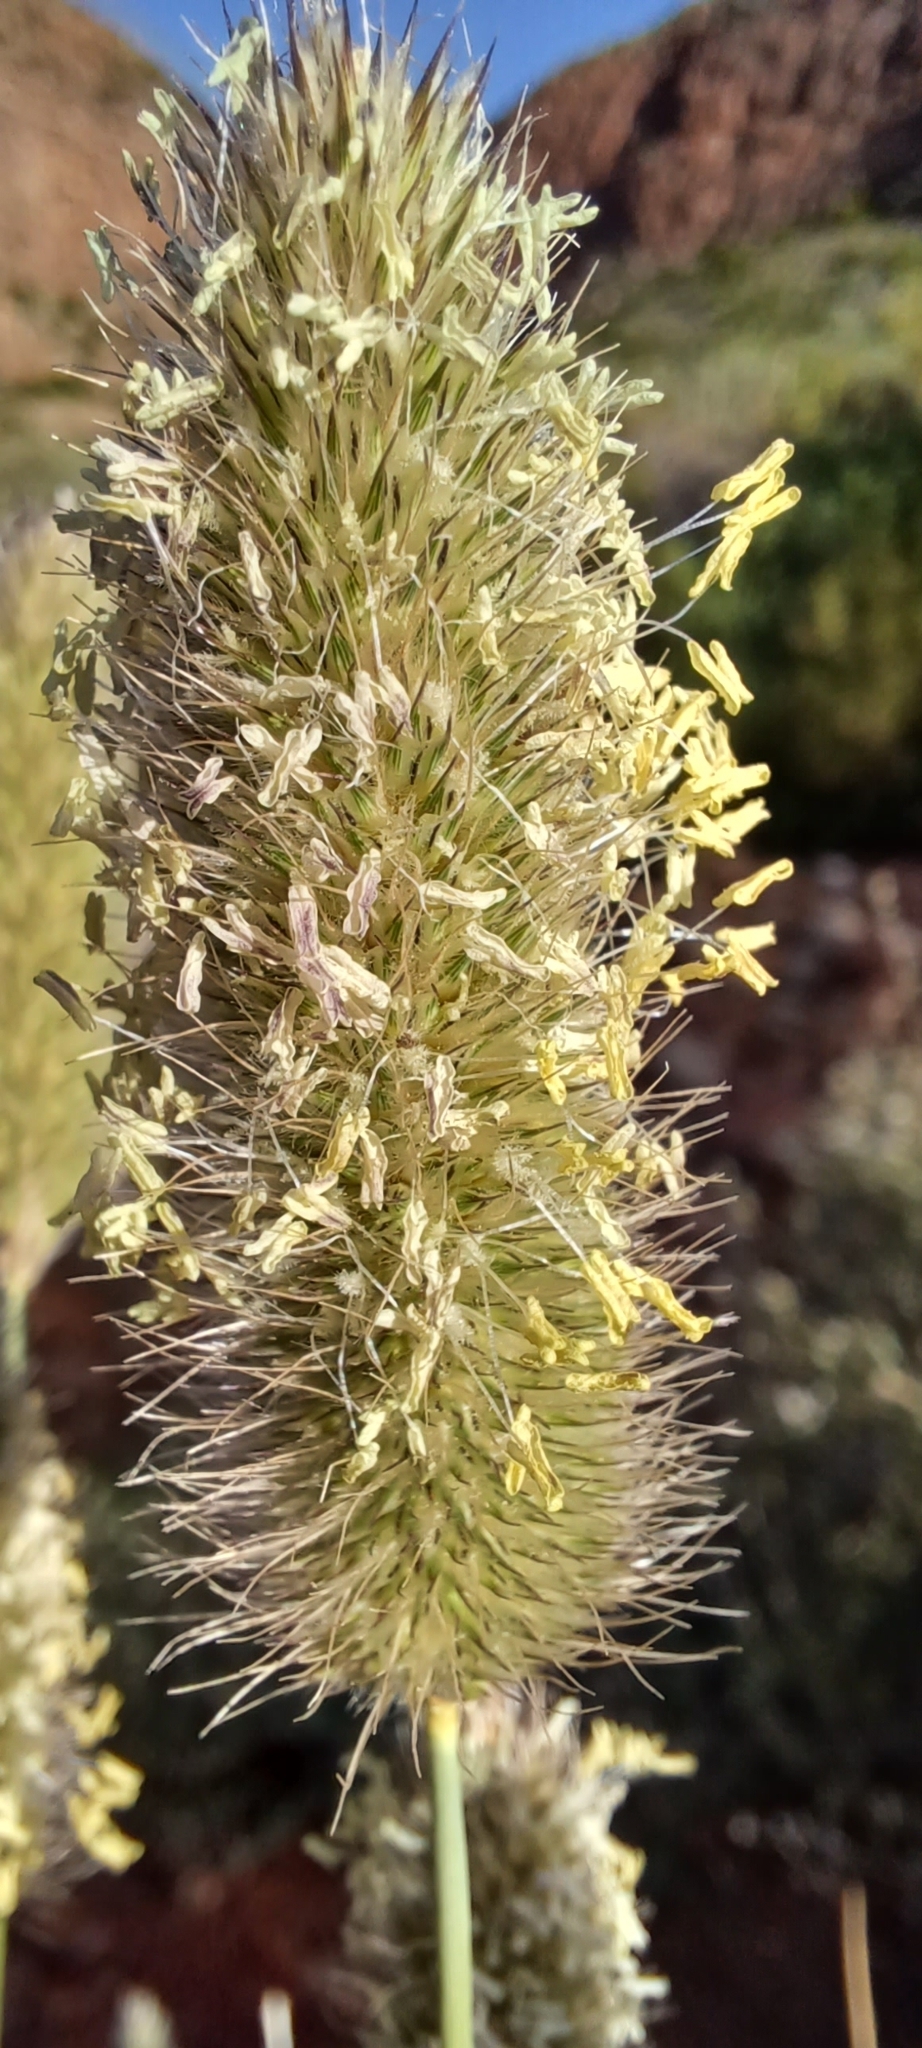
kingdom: Plantae
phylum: Tracheophyta
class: Liliopsida
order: Poales
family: Poaceae
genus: Fingerhuthia
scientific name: Fingerhuthia africana
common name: Zulu fescue
